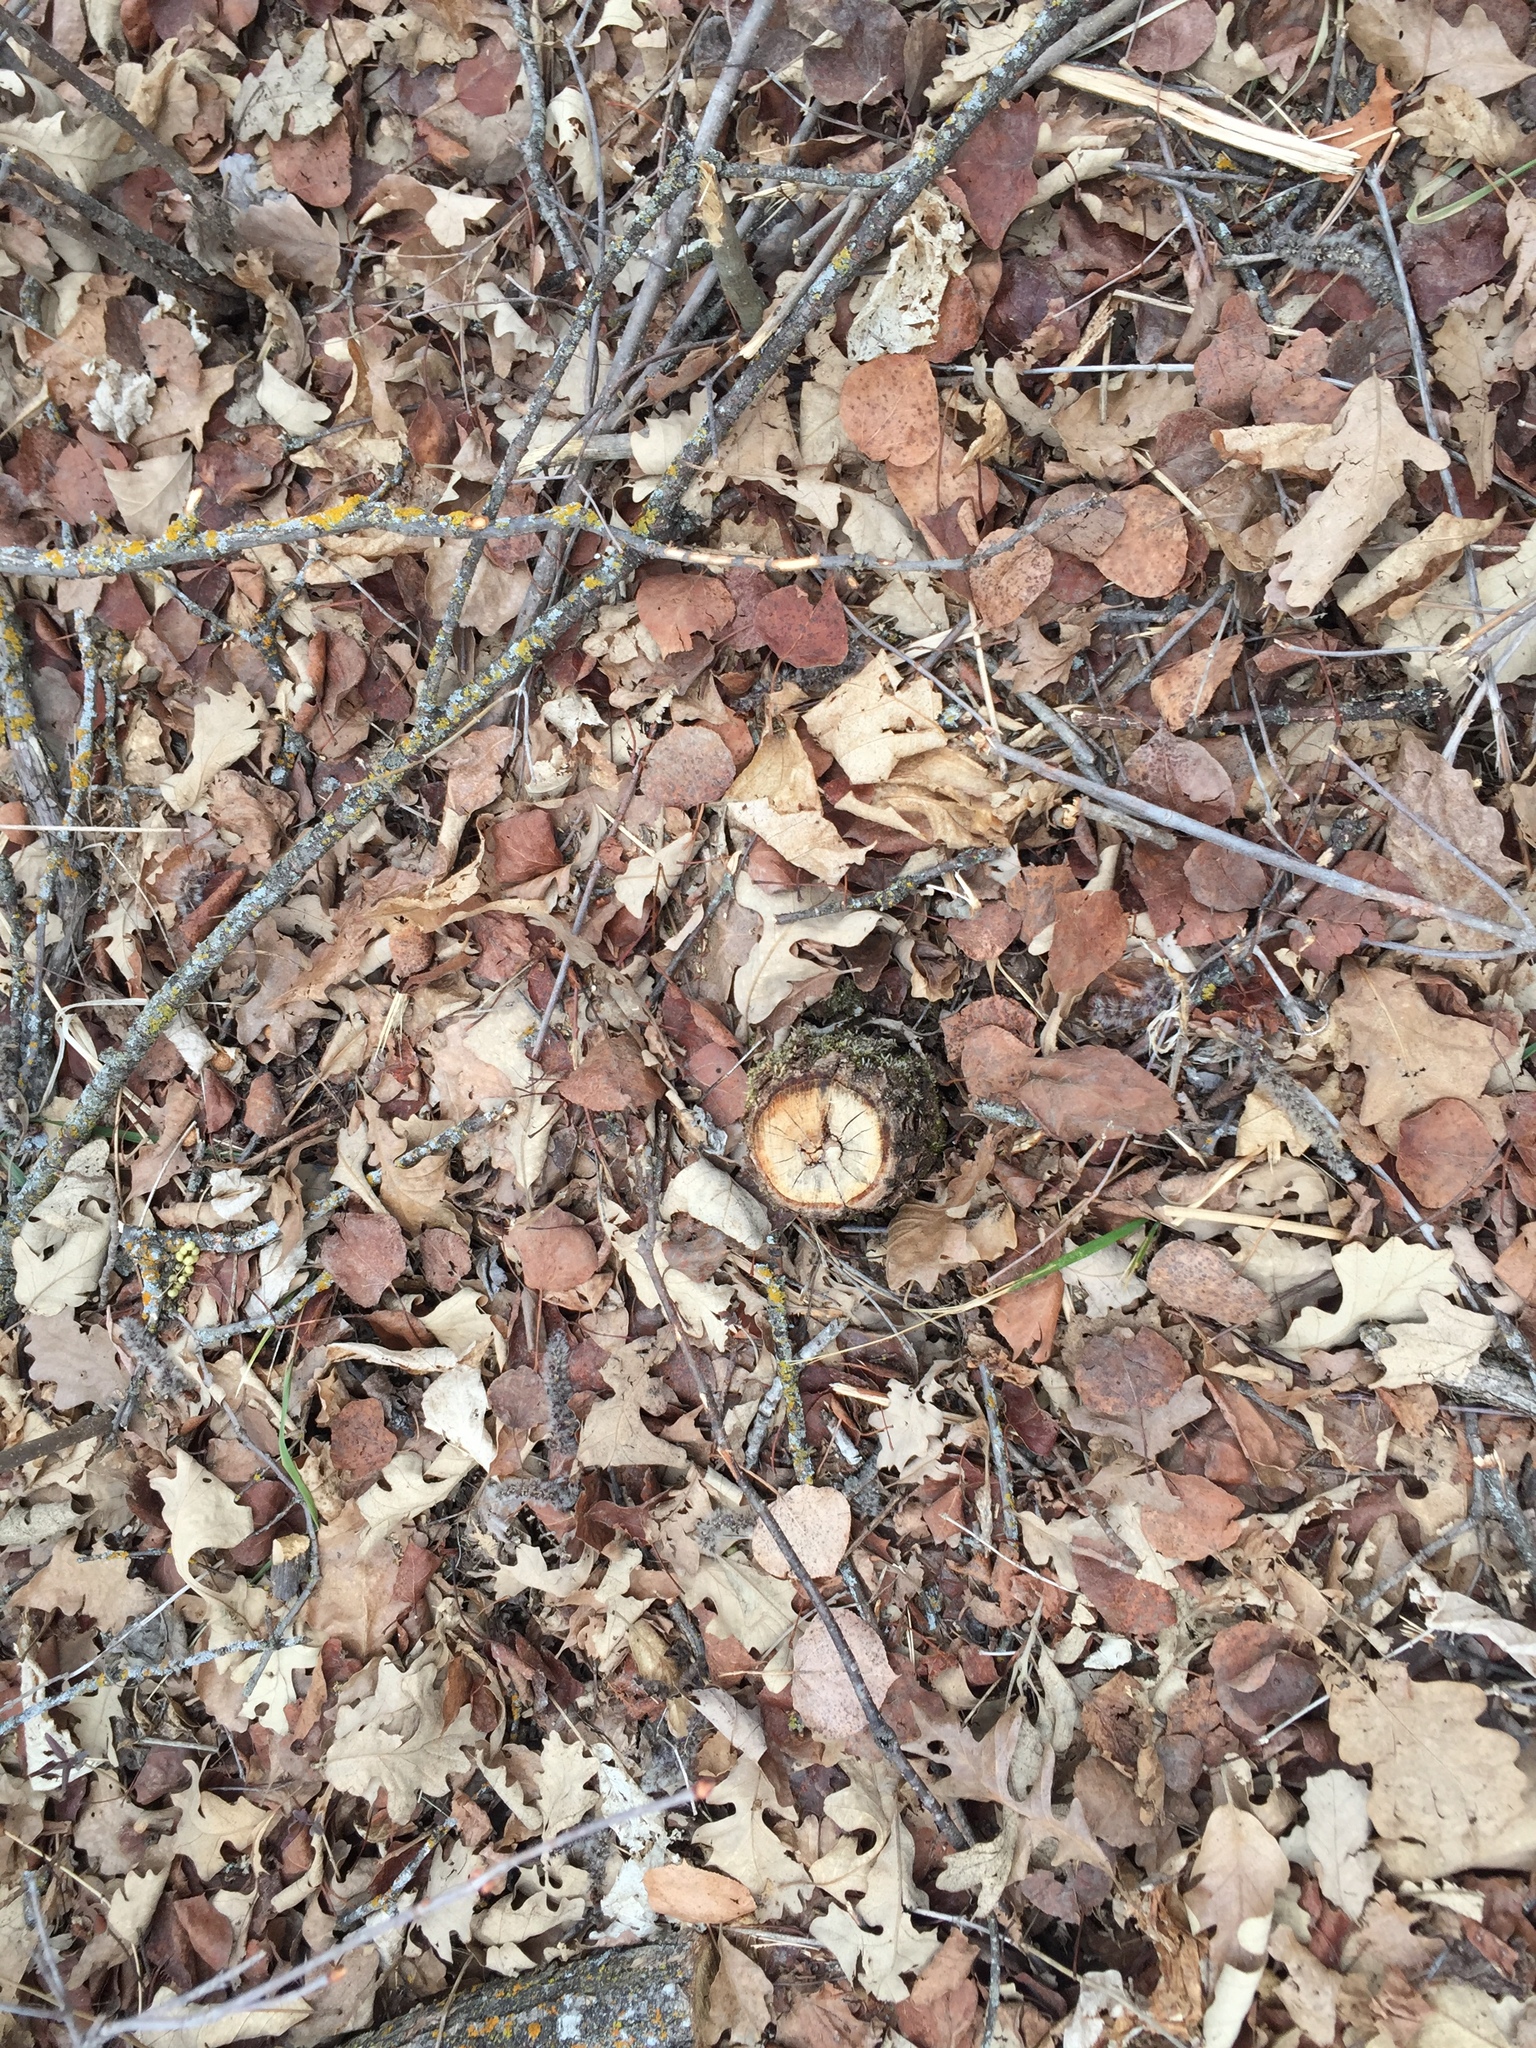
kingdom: Plantae
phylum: Tracheophyta
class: Magnoliopsida
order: Fagales
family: Fagaceae
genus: Quercus
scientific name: Quercus macrocarpa
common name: Bur oak
